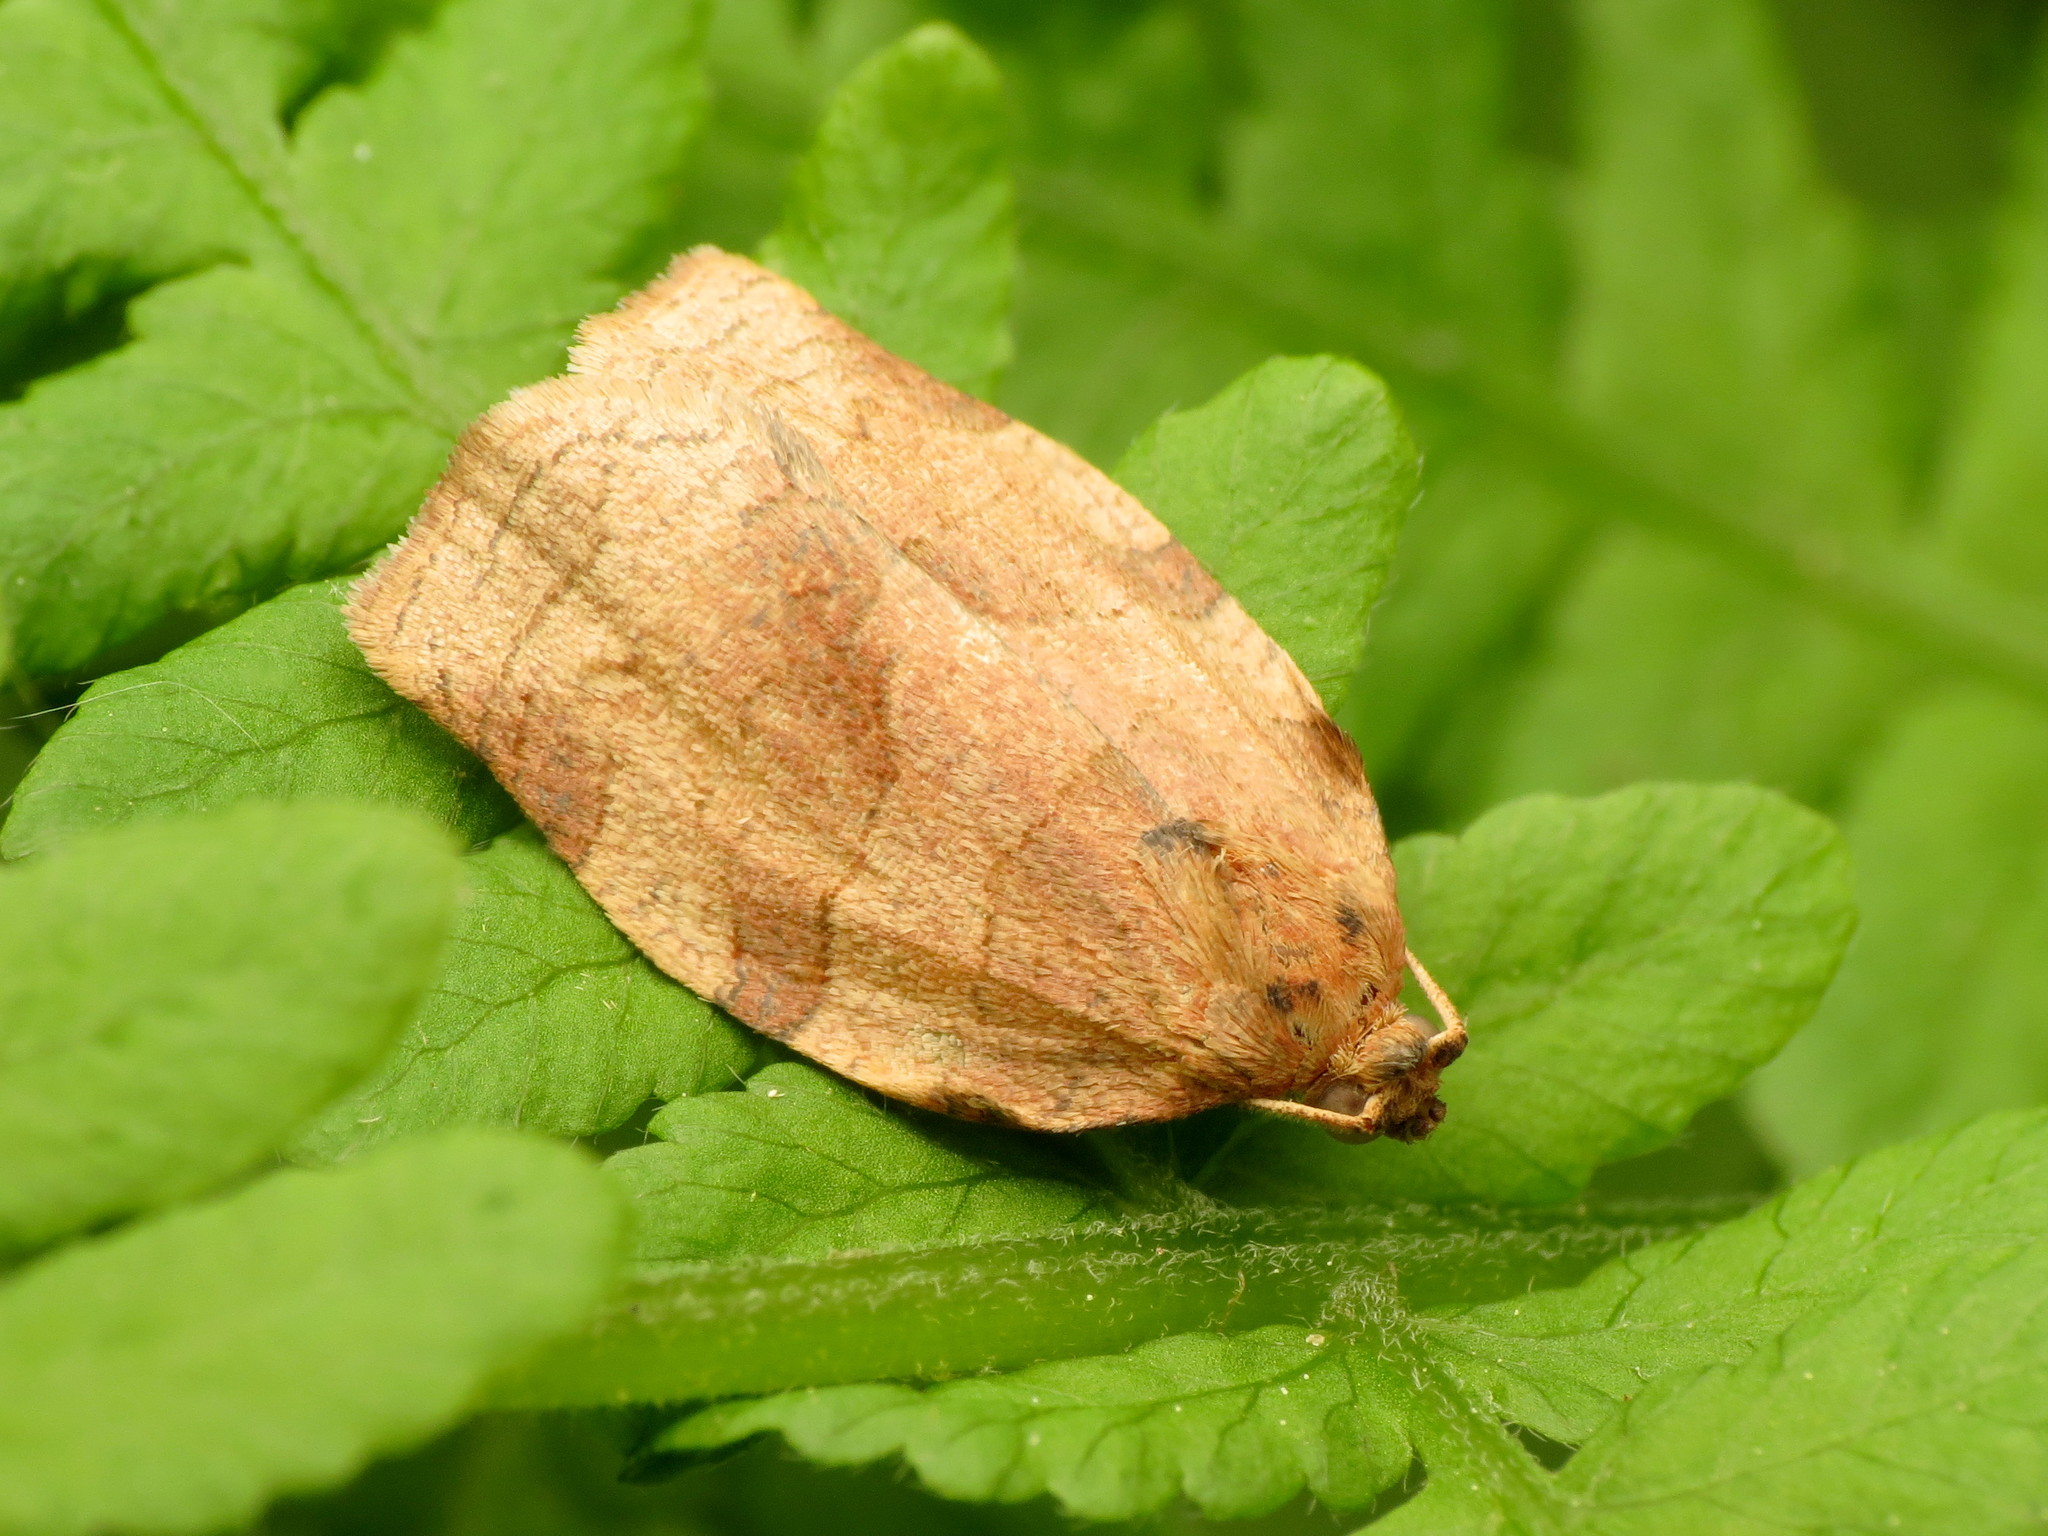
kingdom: Animalia
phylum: Arthropoda
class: Insecta
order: Lepidoptera
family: Tortricidae
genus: Choristoneura
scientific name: Choristoneura rosaceana
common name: Oblique-banded leafroller moth
